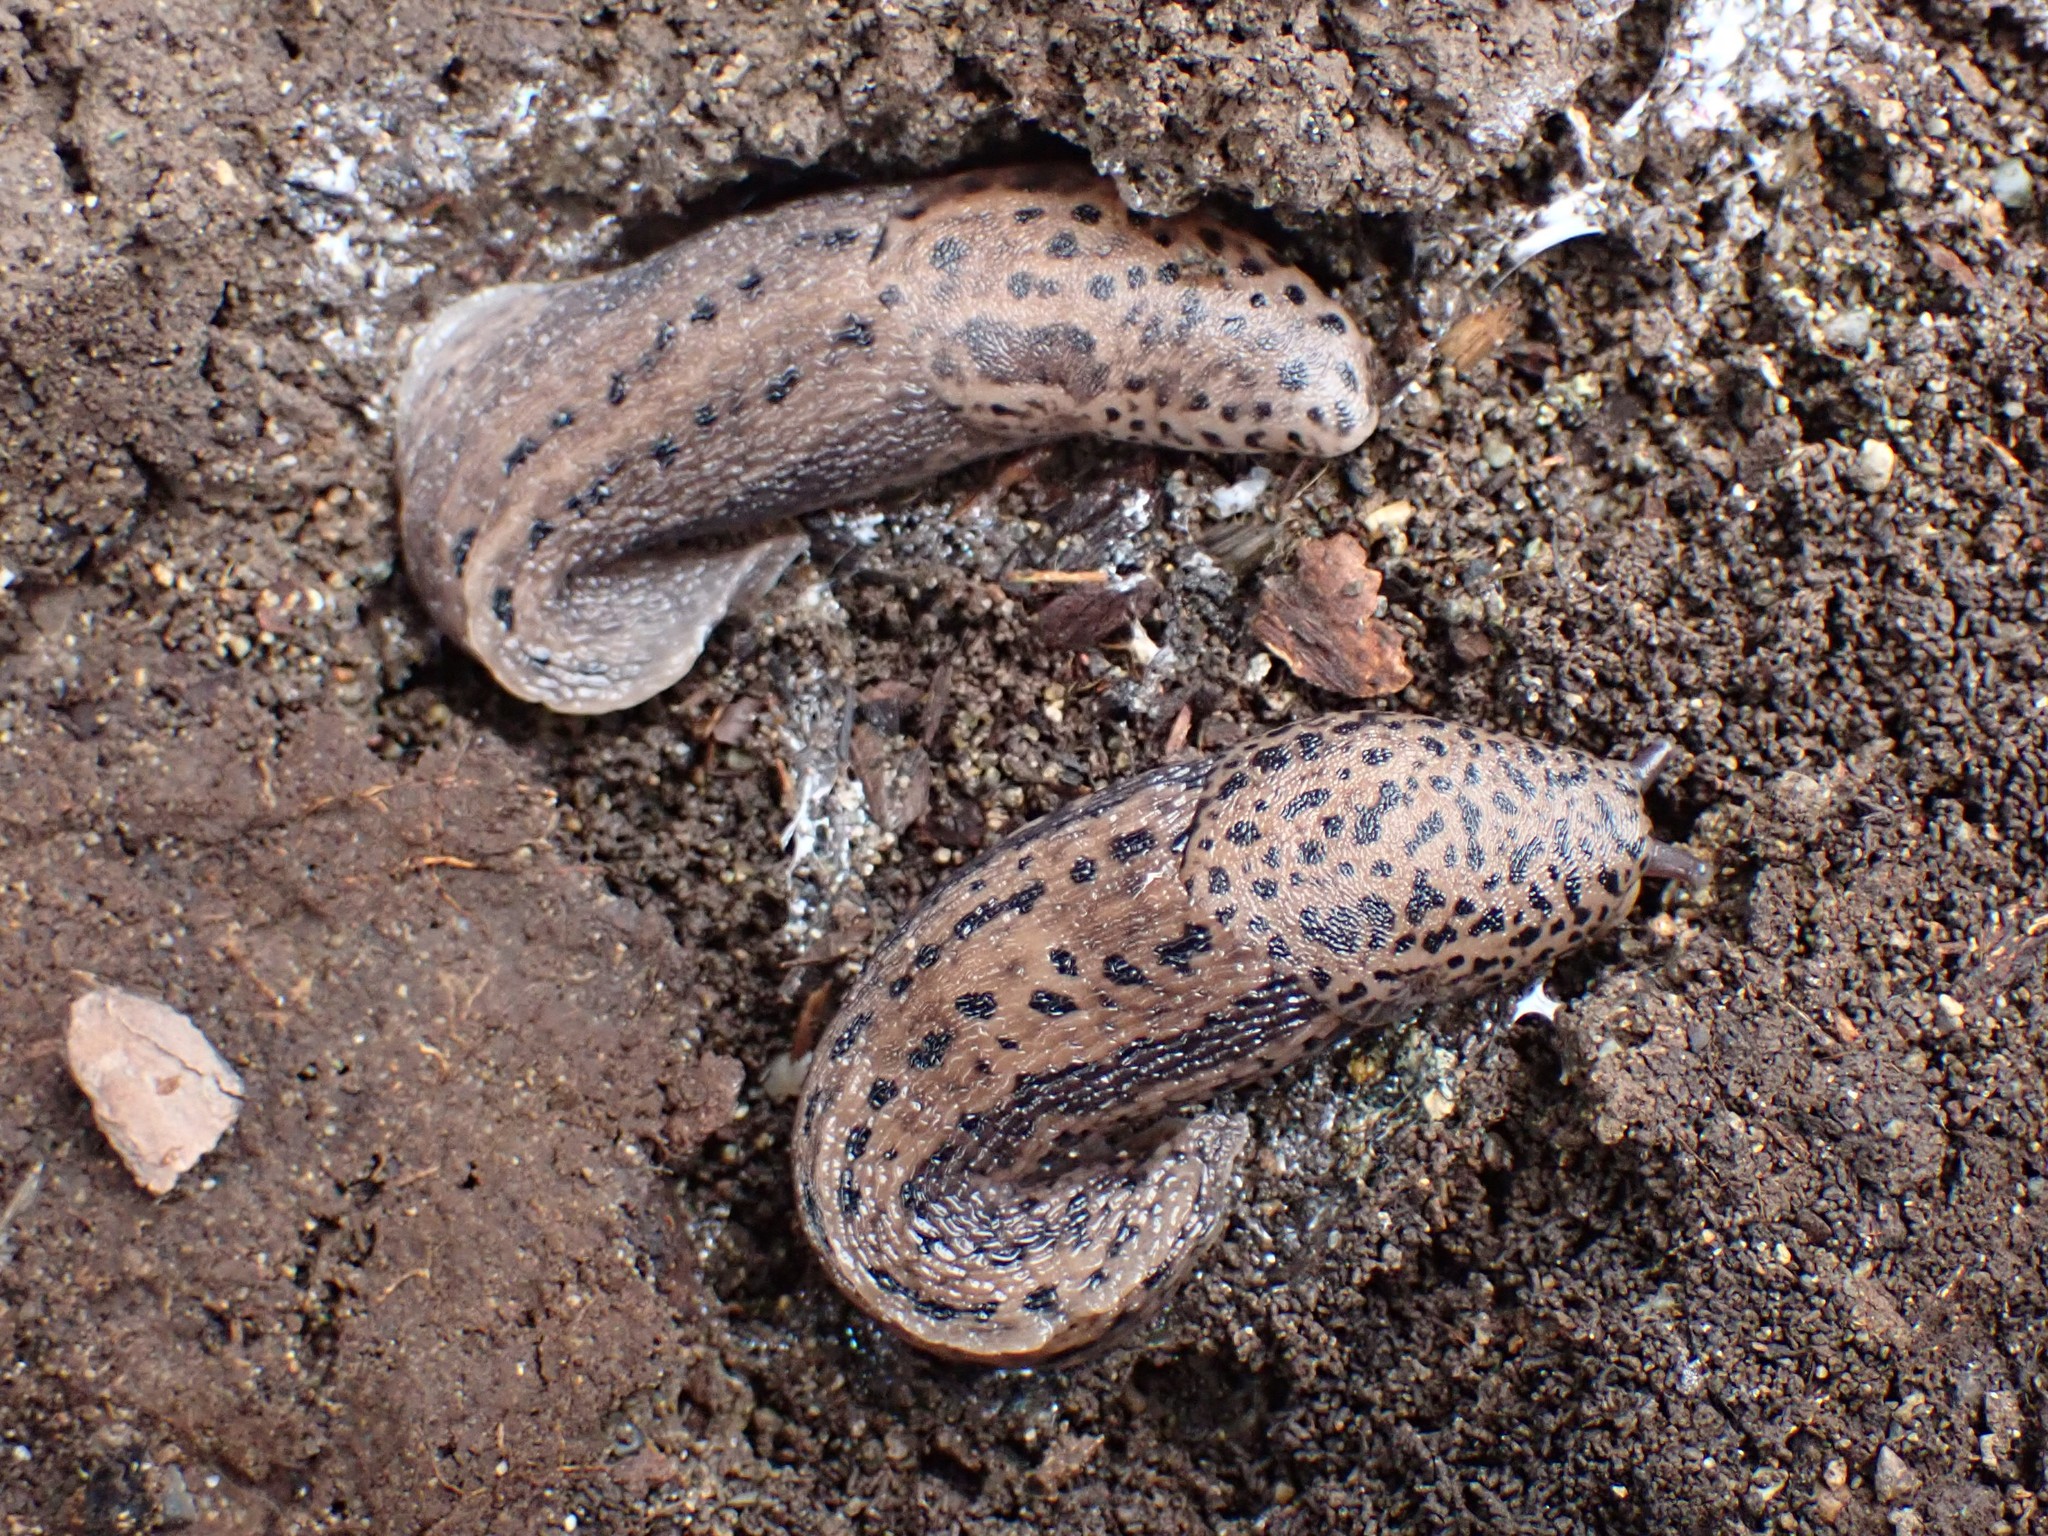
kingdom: Animalia
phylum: Mollusca
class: Gastropoda
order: Stylommatophora
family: Limacidae
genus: Limax
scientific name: Limax maximus
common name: Great grey slug
